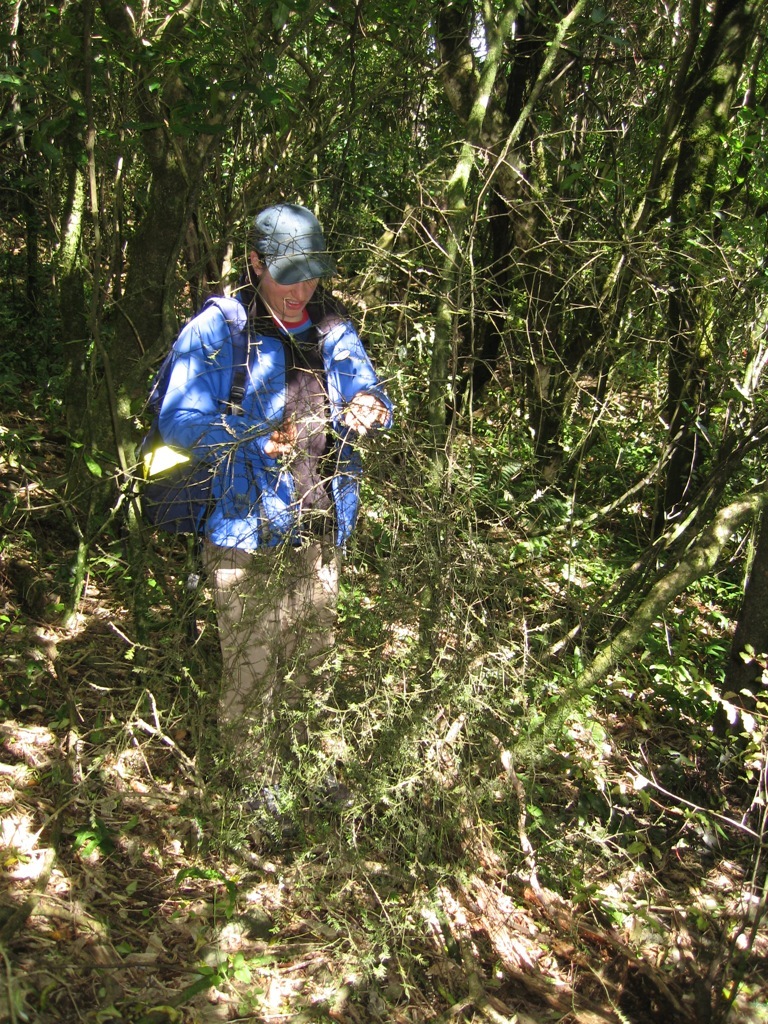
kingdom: Plantae
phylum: Tracheophyta
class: Pinopsida
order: Pinales
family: Podocarpaceae
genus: Prumnopitys
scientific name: Prumnopitys taxifolia
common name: Matai
